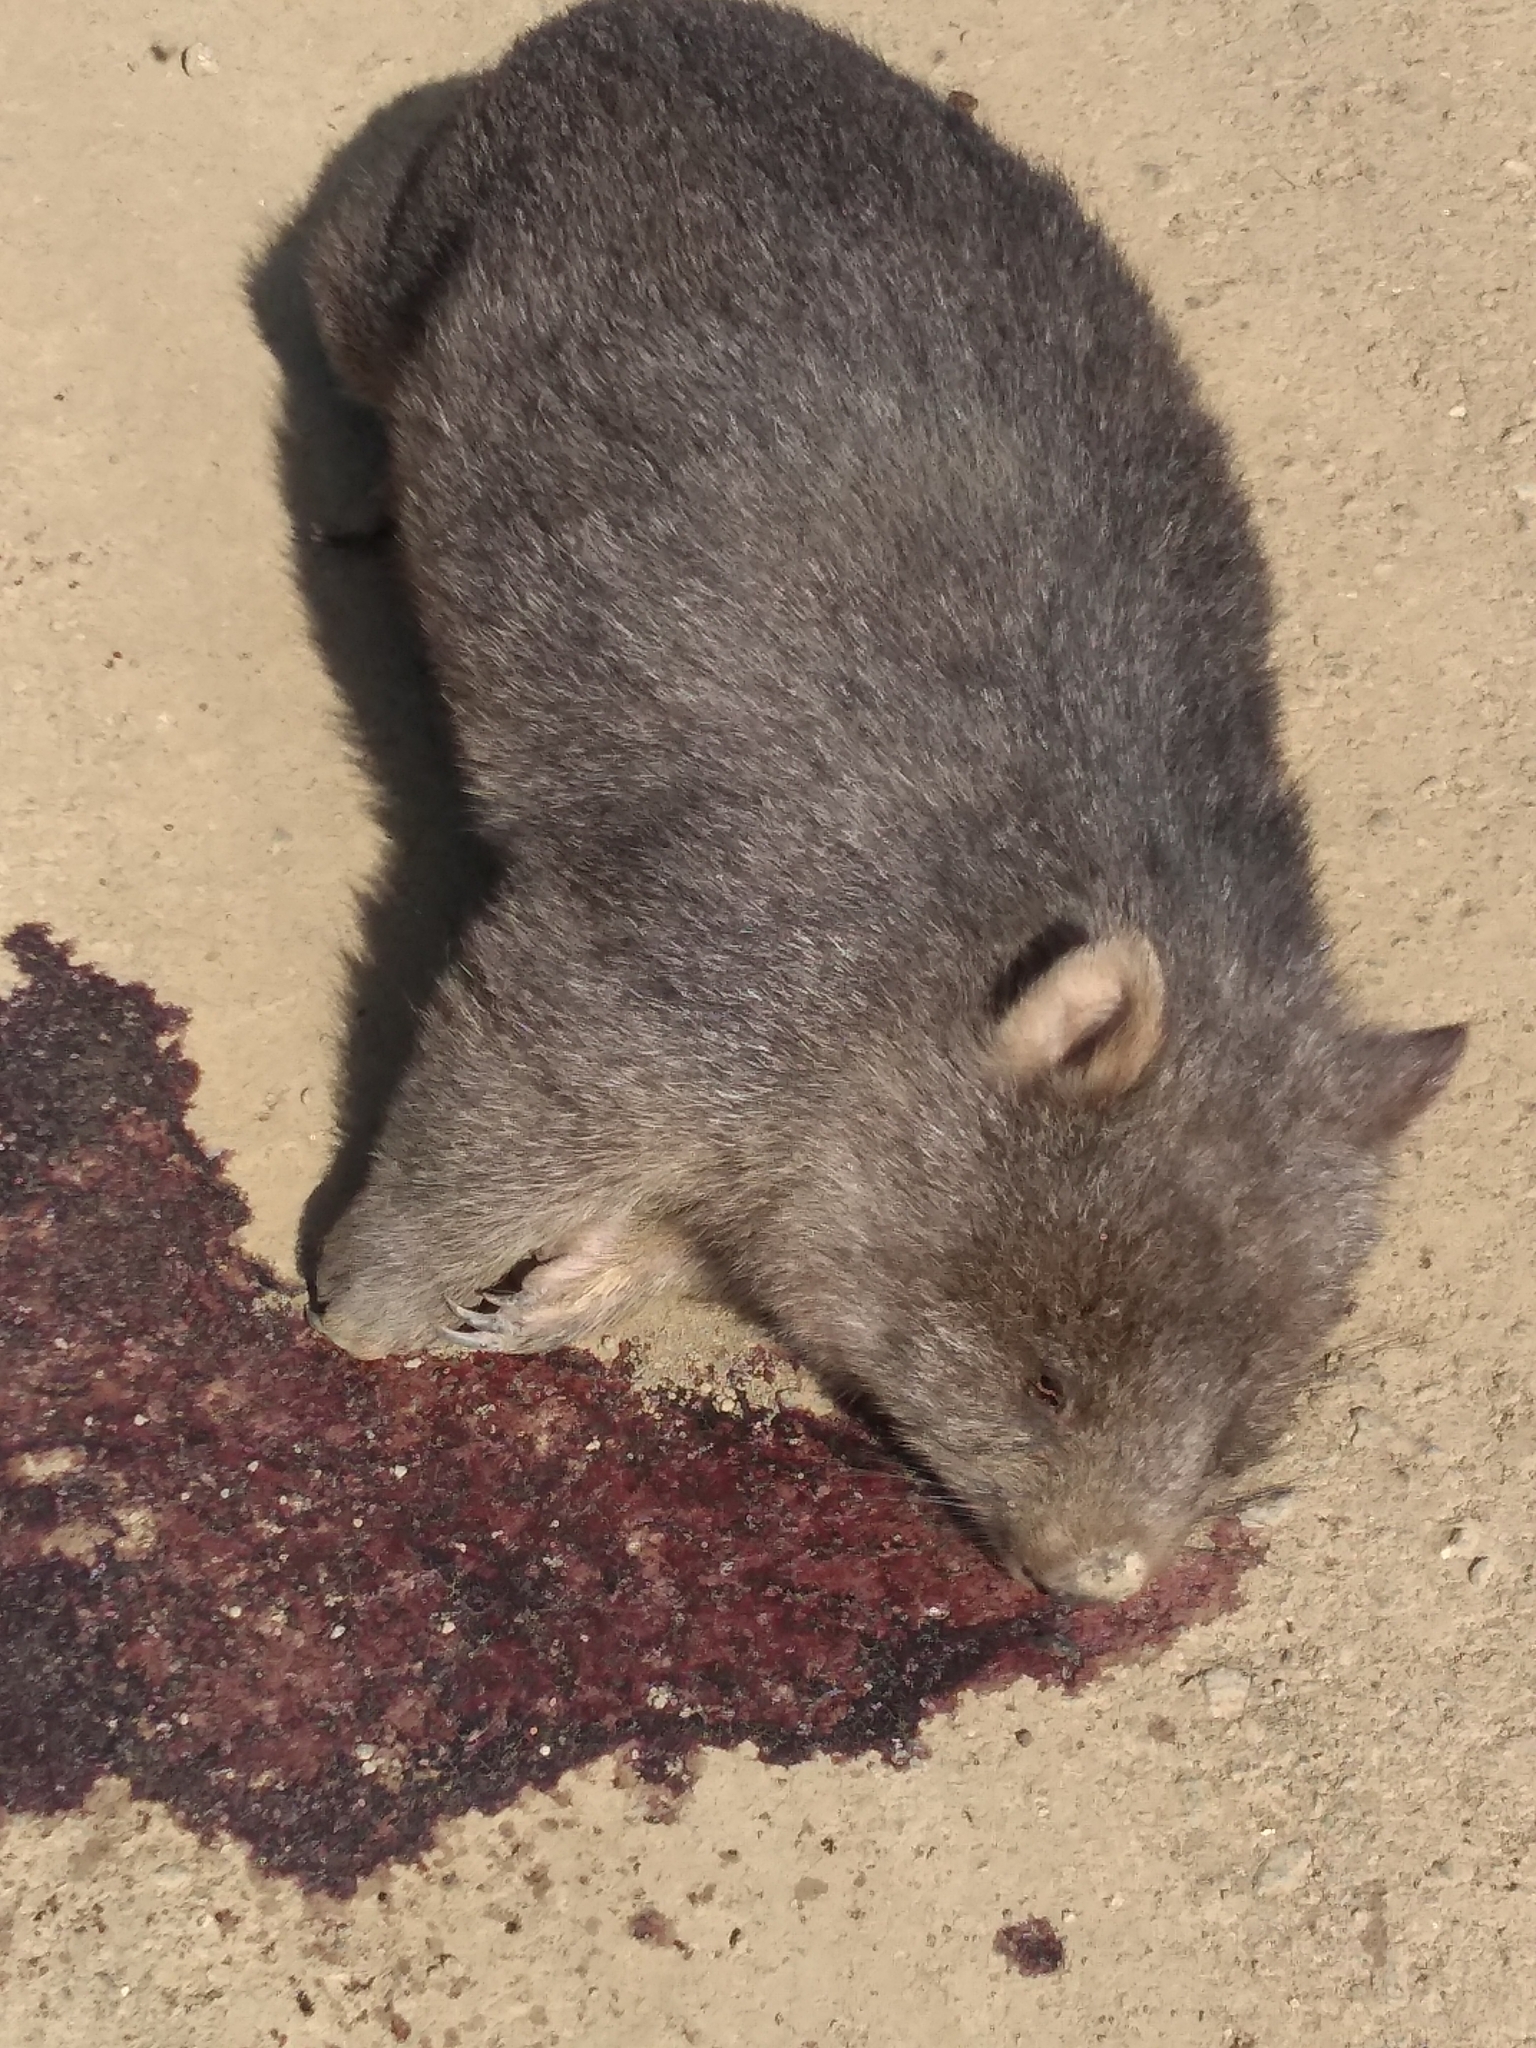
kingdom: Animalia
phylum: Chordata
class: Mammalia
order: Diprotodontia
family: Vombatidae
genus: Vombatus
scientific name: Vombatus ursinus
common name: Common wombat
